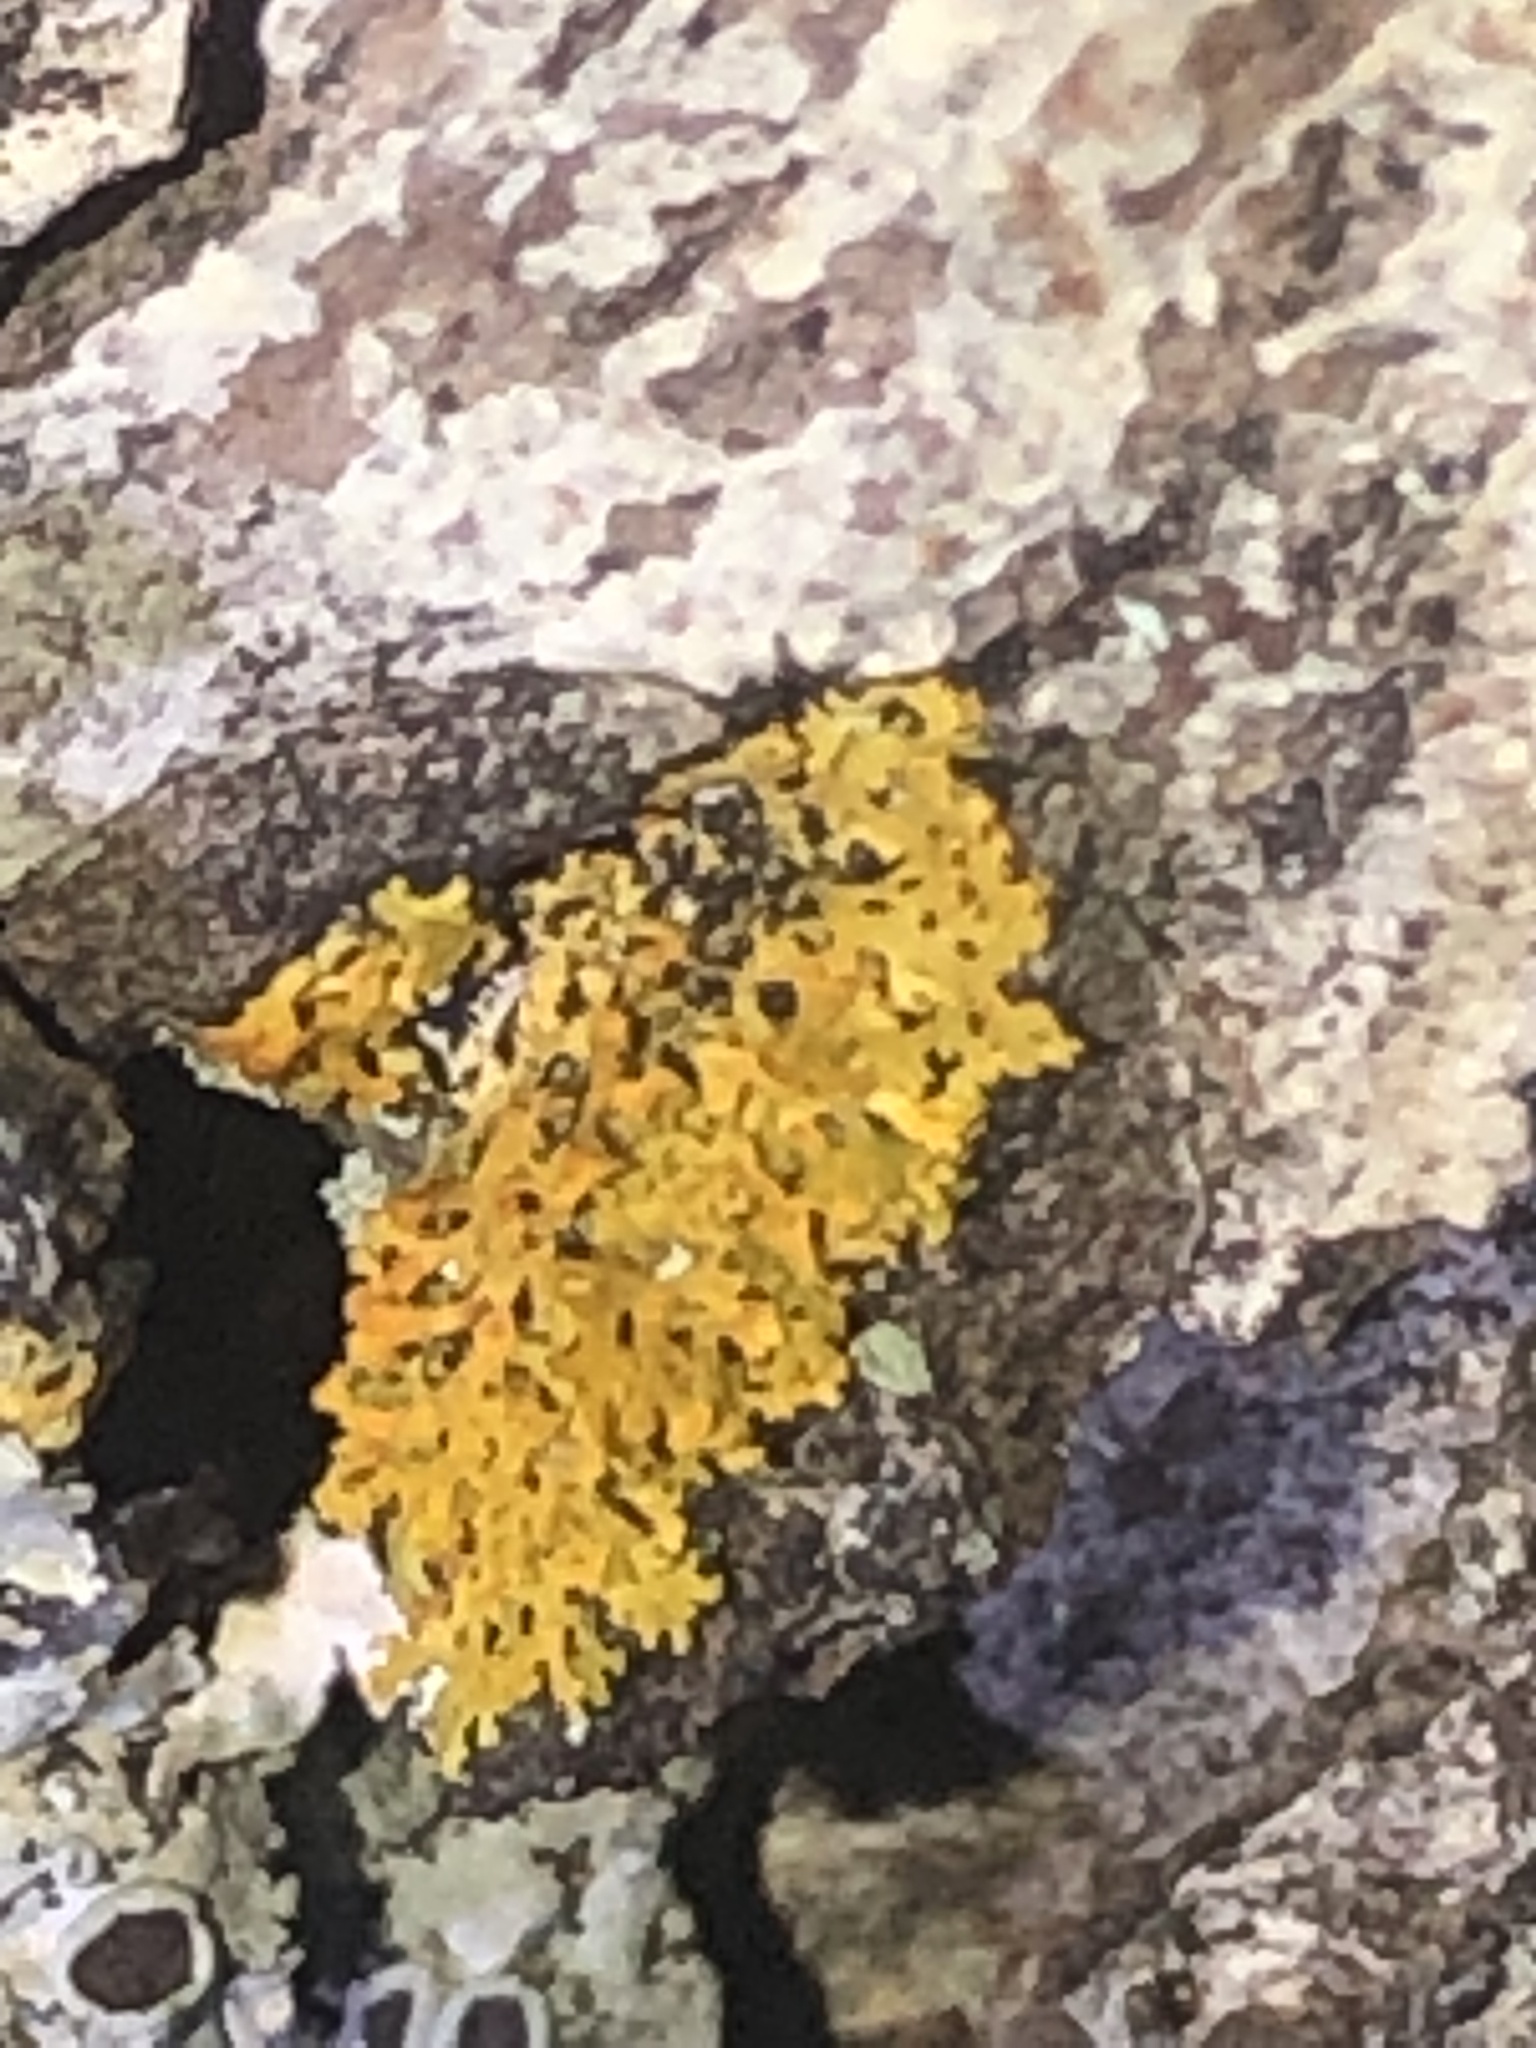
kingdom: Fungi
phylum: Ascomycota
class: Lecanoromycetes
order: Teloschistales
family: Teloschistaceae
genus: Gallowayella
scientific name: Gallowayella weberi
